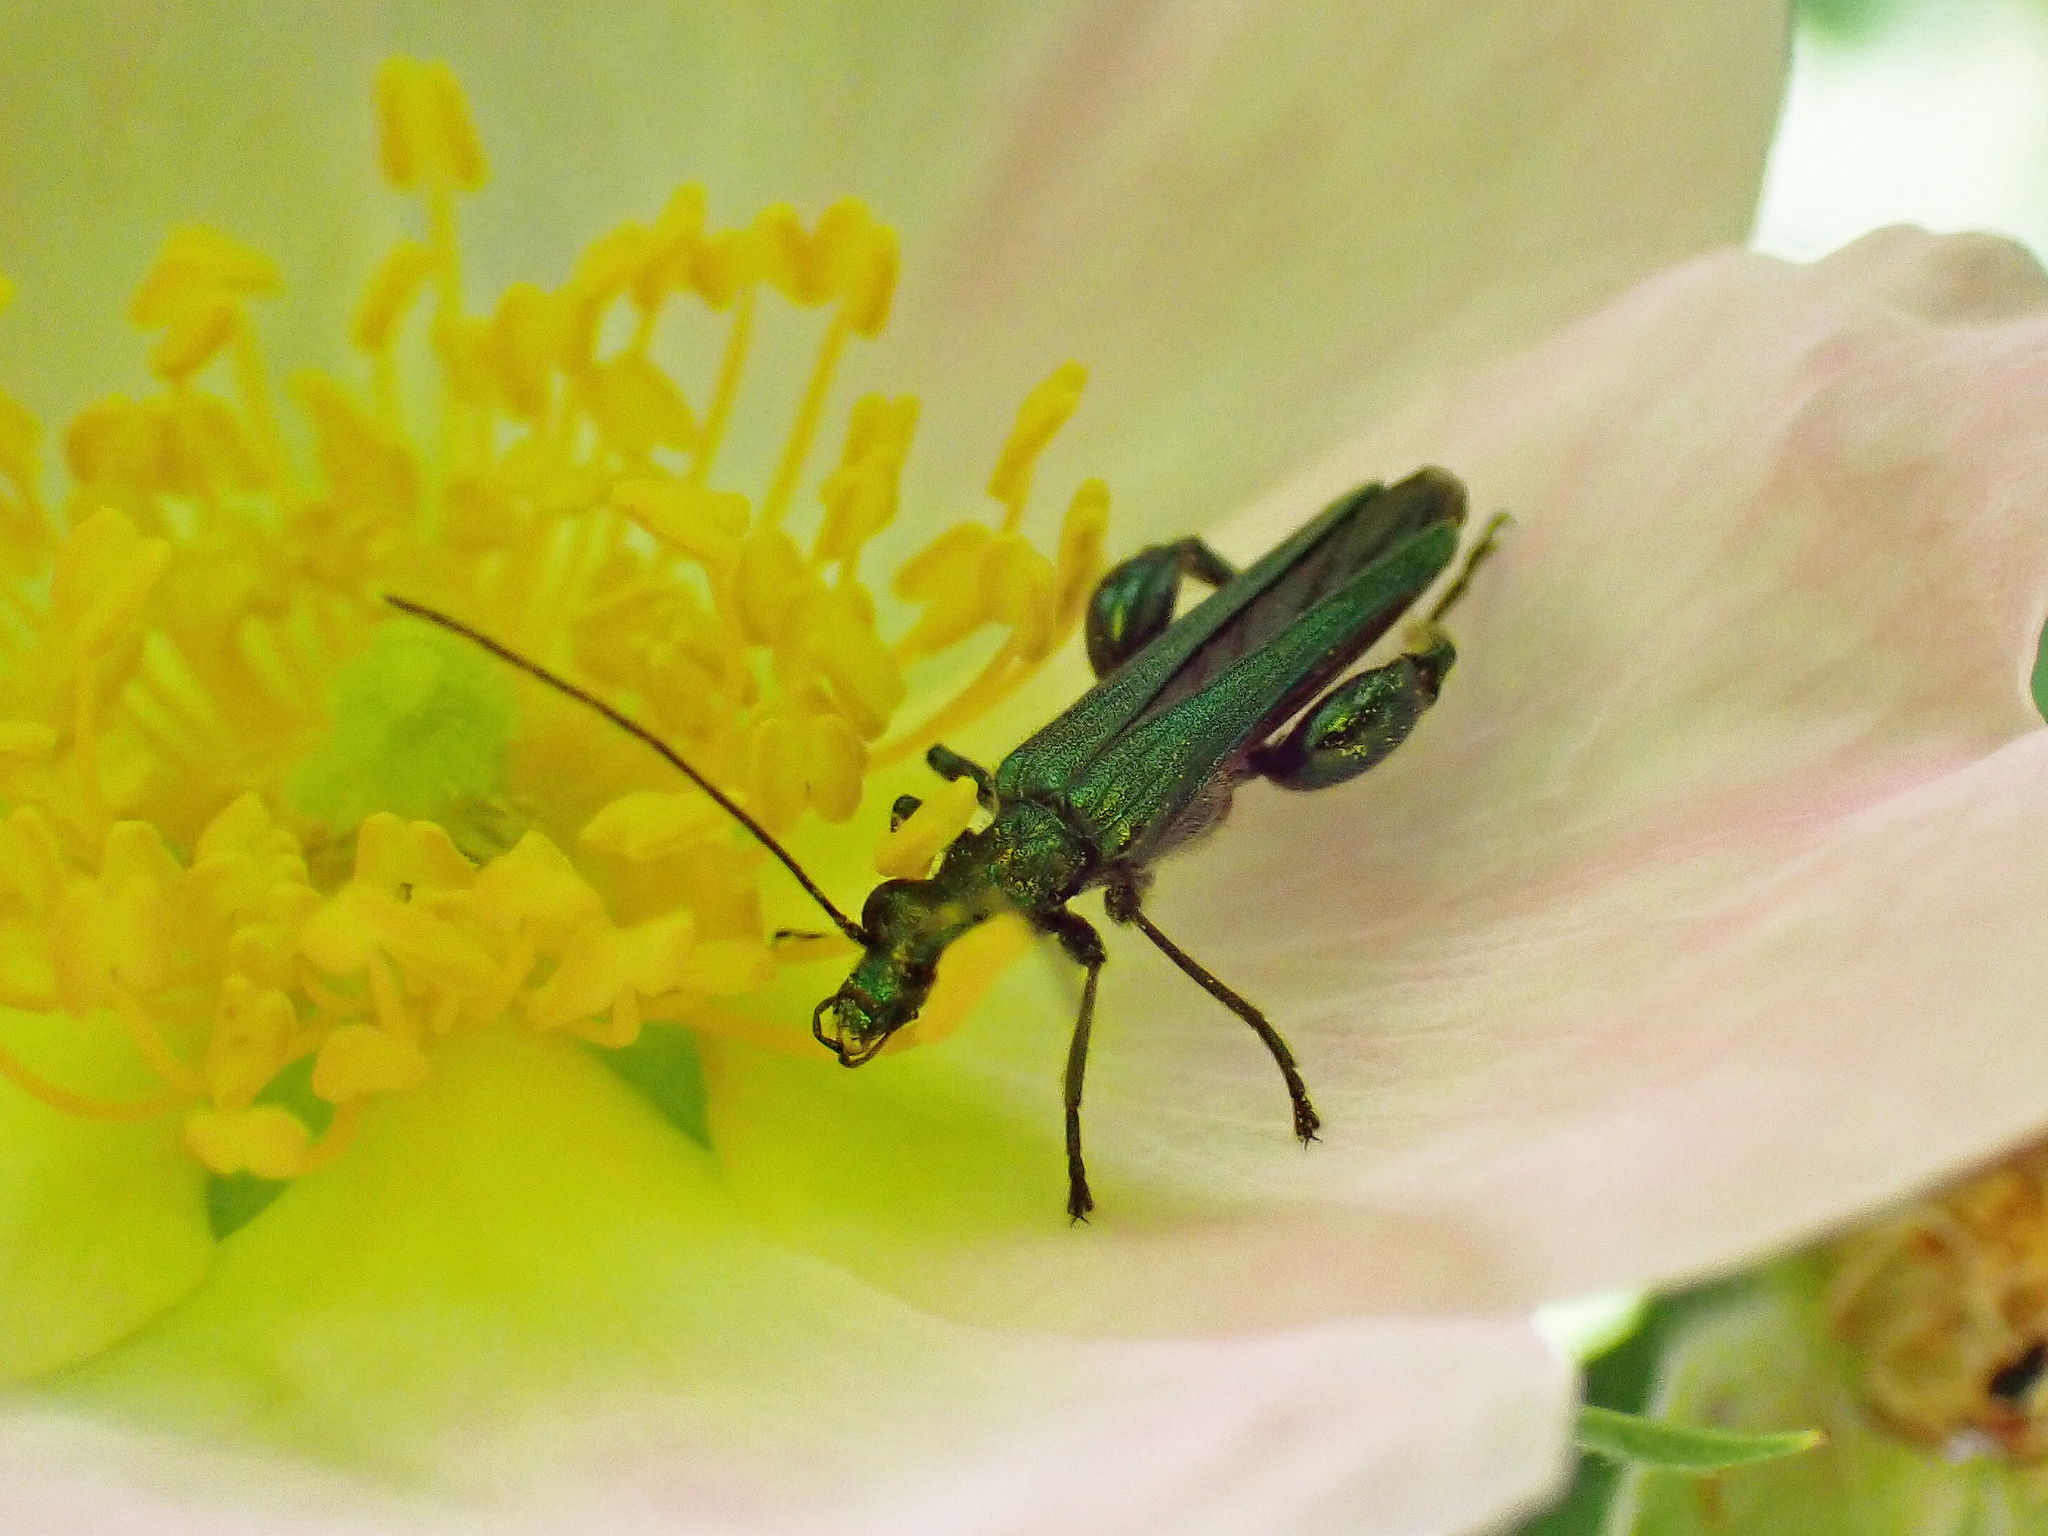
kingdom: Animalia
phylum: Arthropoda
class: Insecta
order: Coleoptera
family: Oedemeridae
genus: Oedemera
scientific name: Oedemera nobilis
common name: Swollen-thighed beetle
